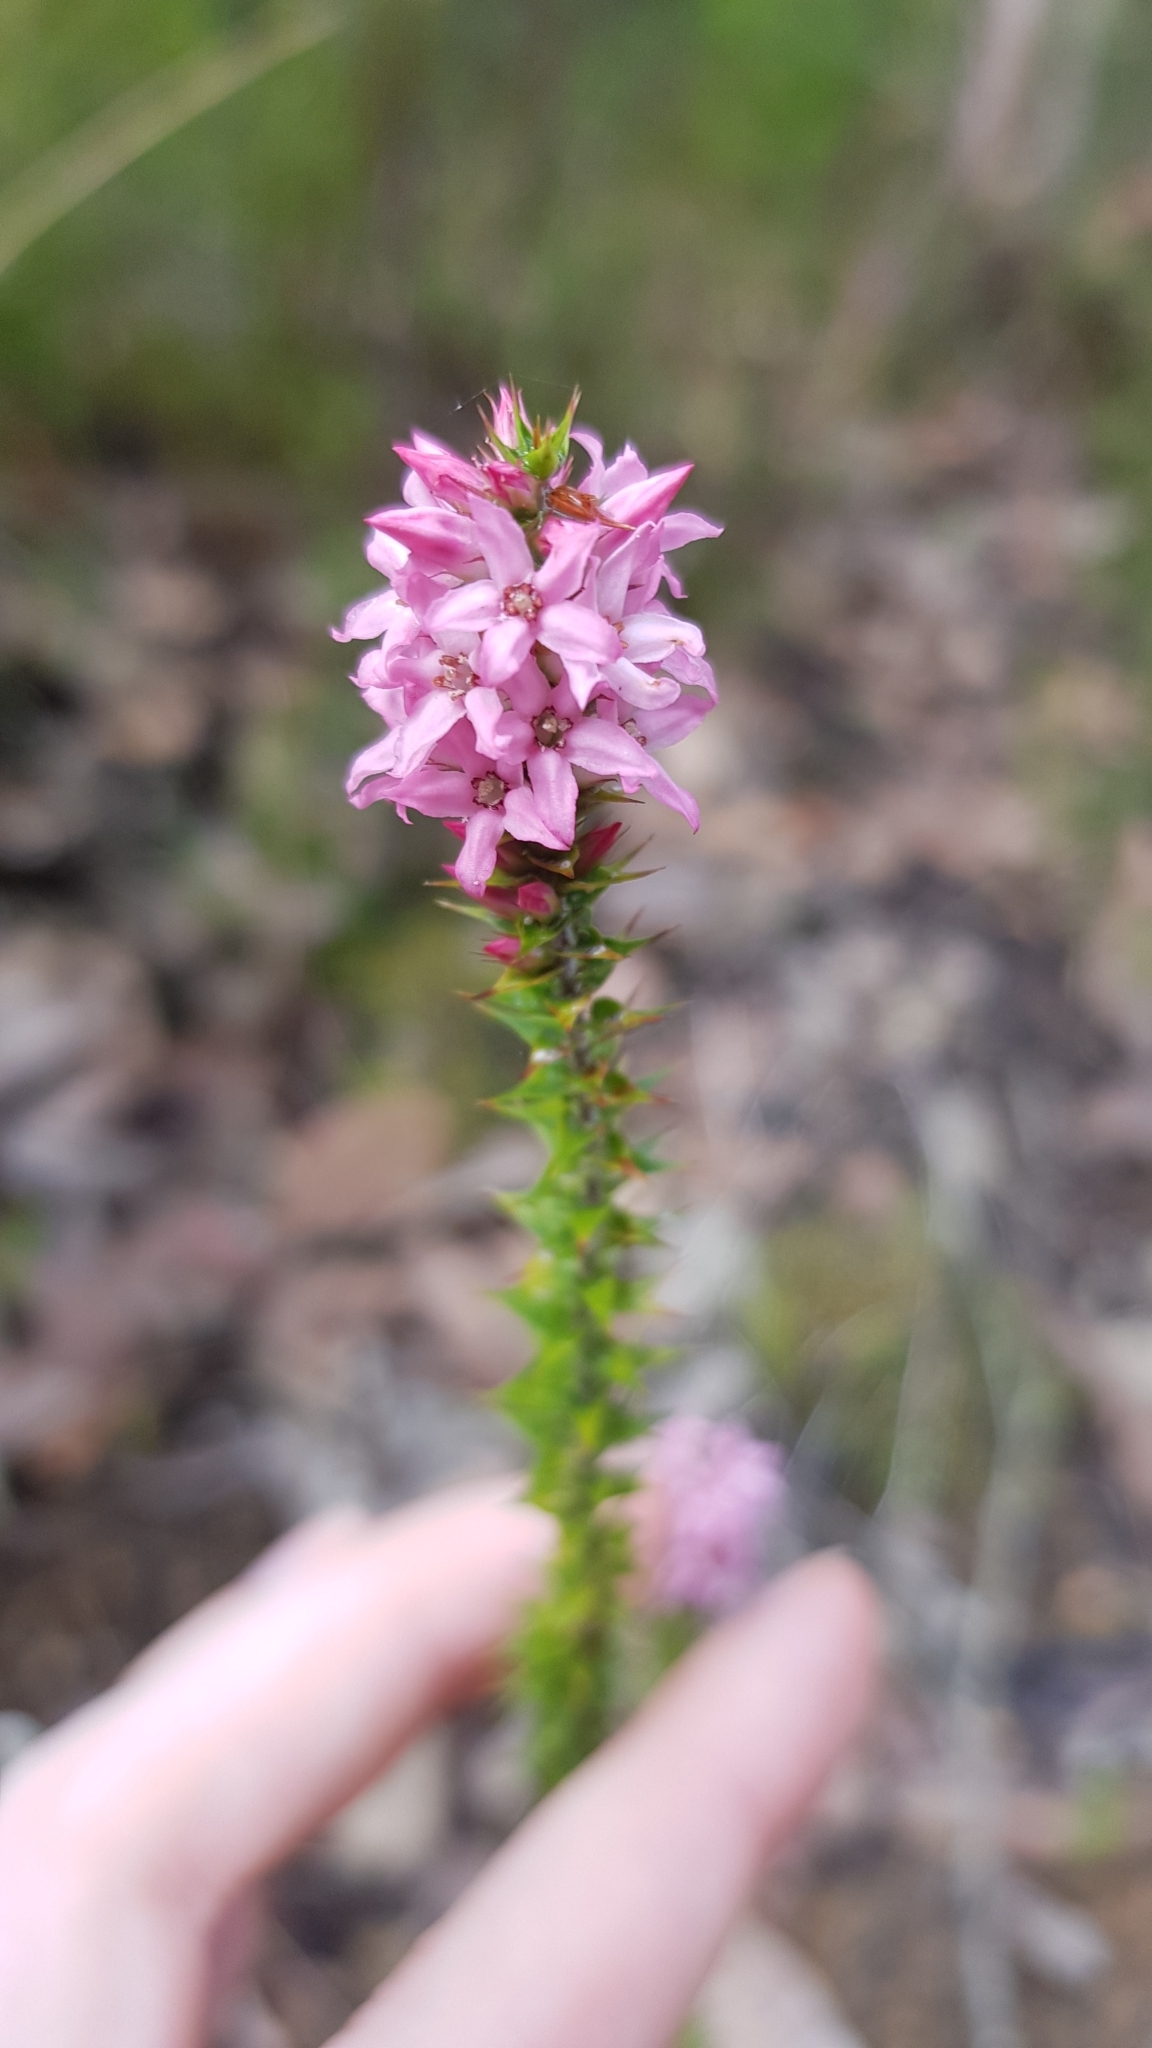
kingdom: Plantae
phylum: Tracheophyta
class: Magnoliopsida
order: Ericales
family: Ericaceae
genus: Epacris
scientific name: Epacris pulchella
